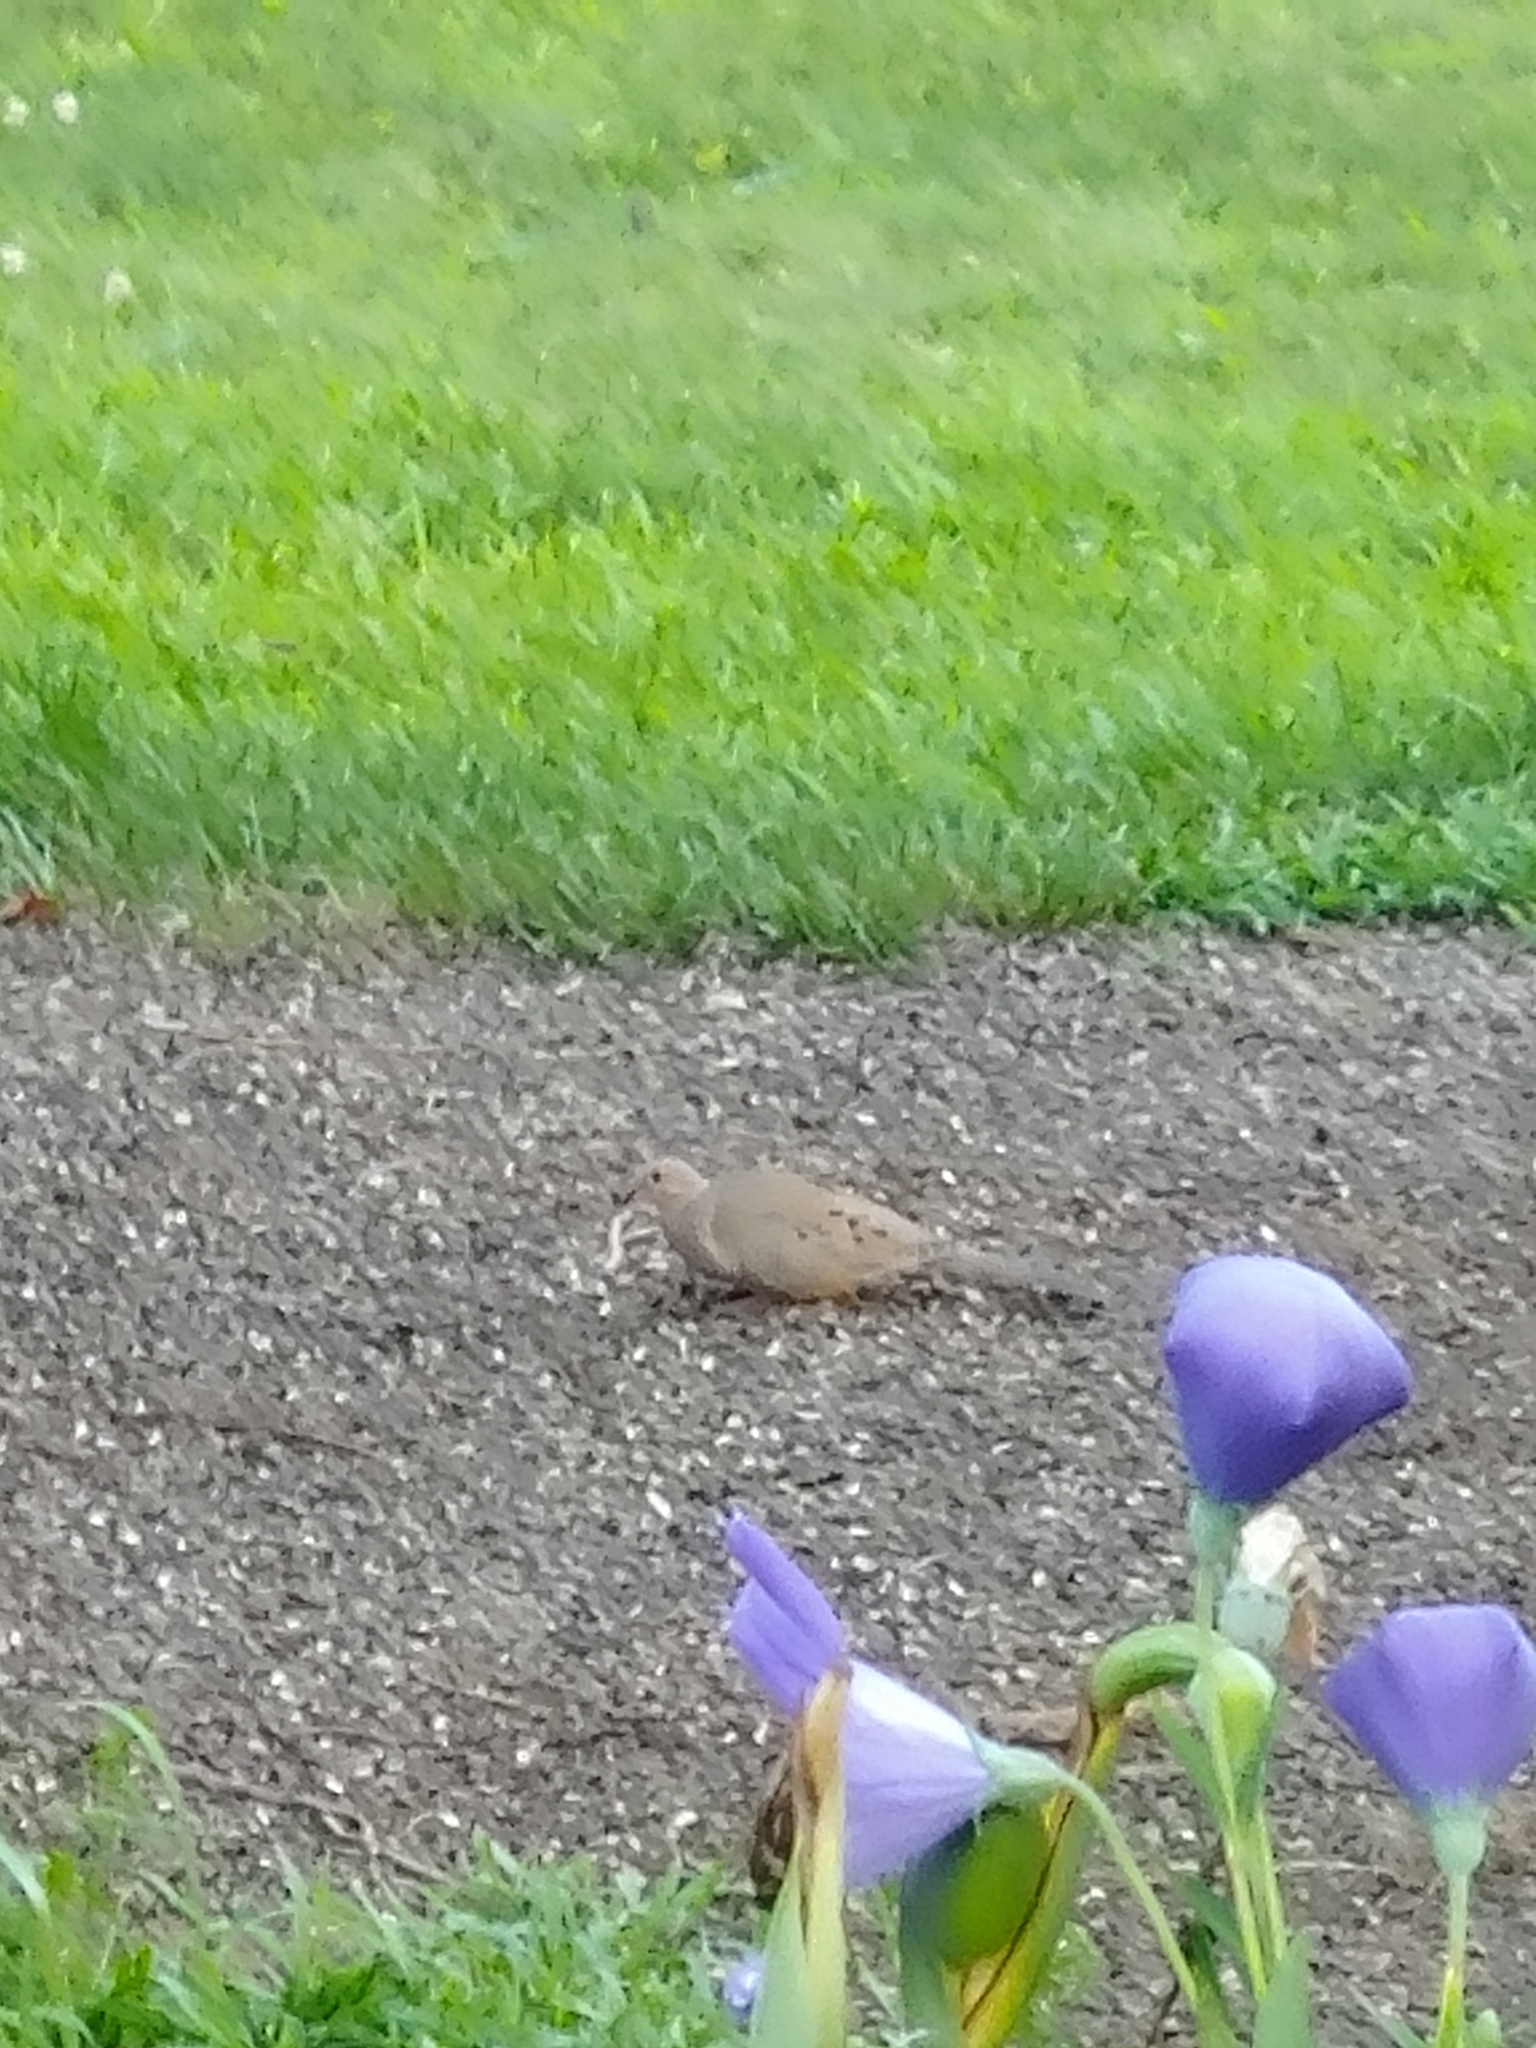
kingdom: Animalia
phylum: Chordata
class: Aves
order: Columbiformes
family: Columbidae
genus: Zenaida
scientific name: Zenaida macroura
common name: Mourning dove
